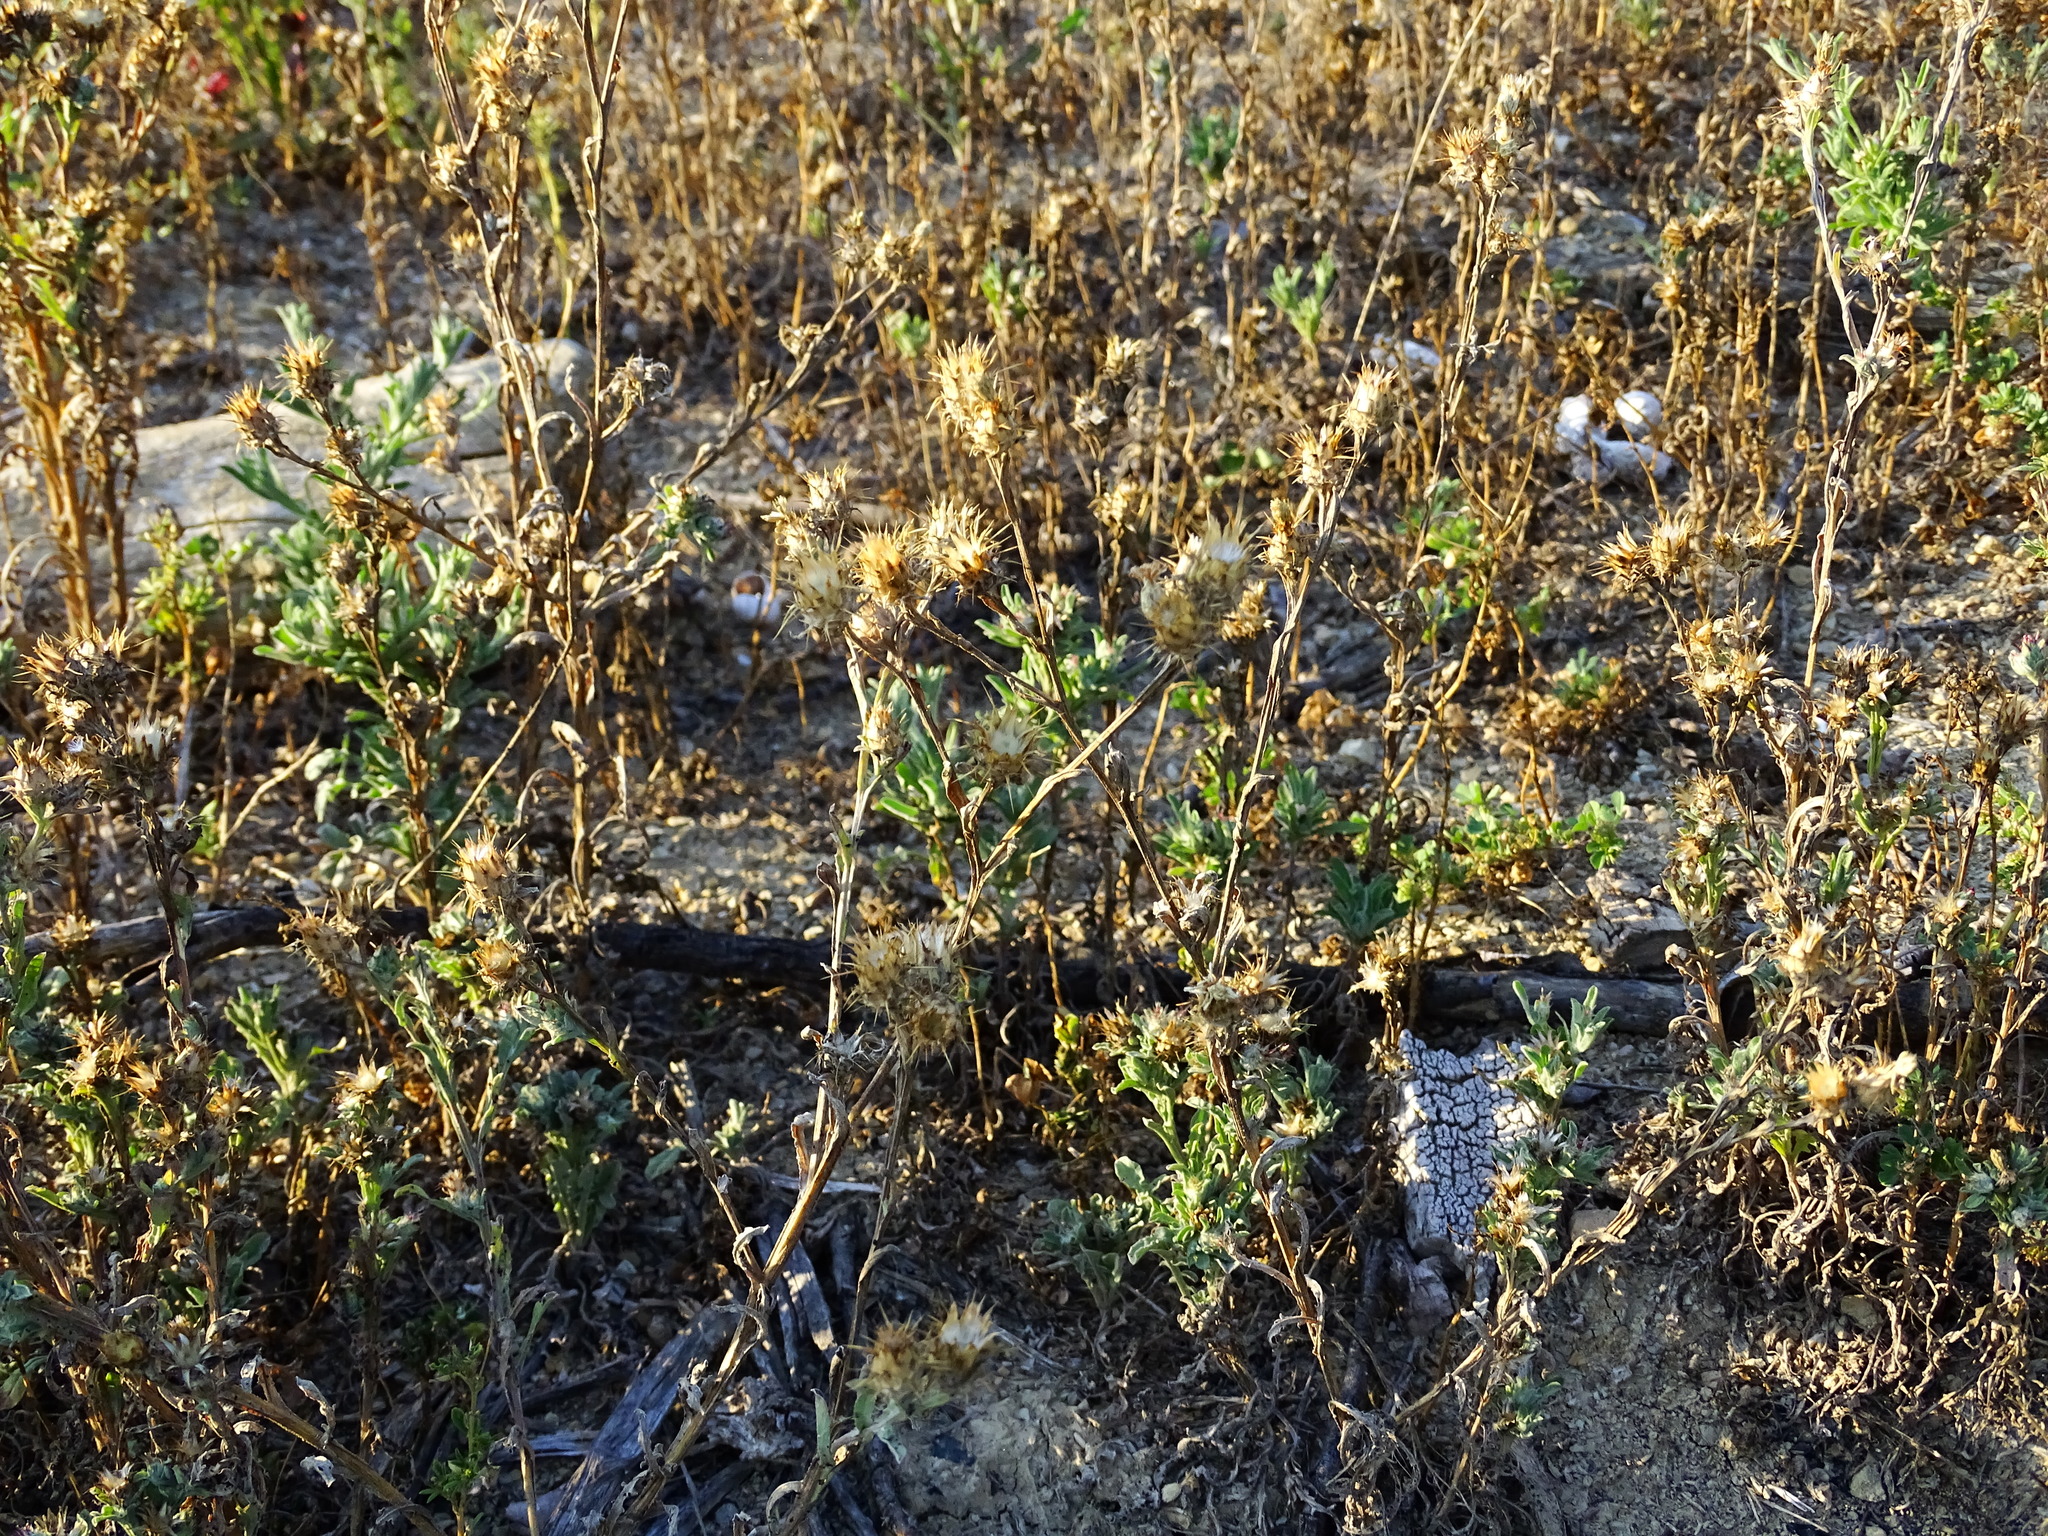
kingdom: Plantae
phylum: Tracheophyta
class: Magnoliopsida
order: Asterales
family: Asteraceae
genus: Centaurea
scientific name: Centaurea melitensis
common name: Maltese star-thistle
